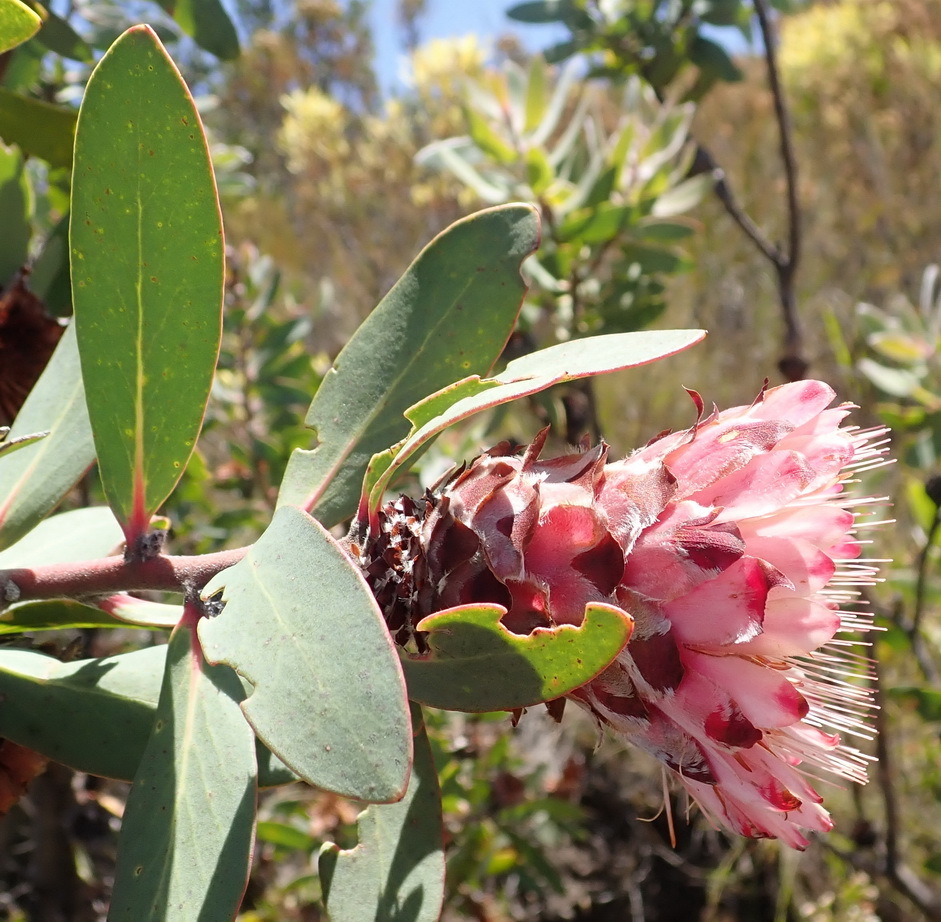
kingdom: Plantae
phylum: Tracheophyta
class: Magnoliopsida
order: Proteales
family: Proteaceae
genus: Protea
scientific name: Protea punctata
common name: Water sugarbush
